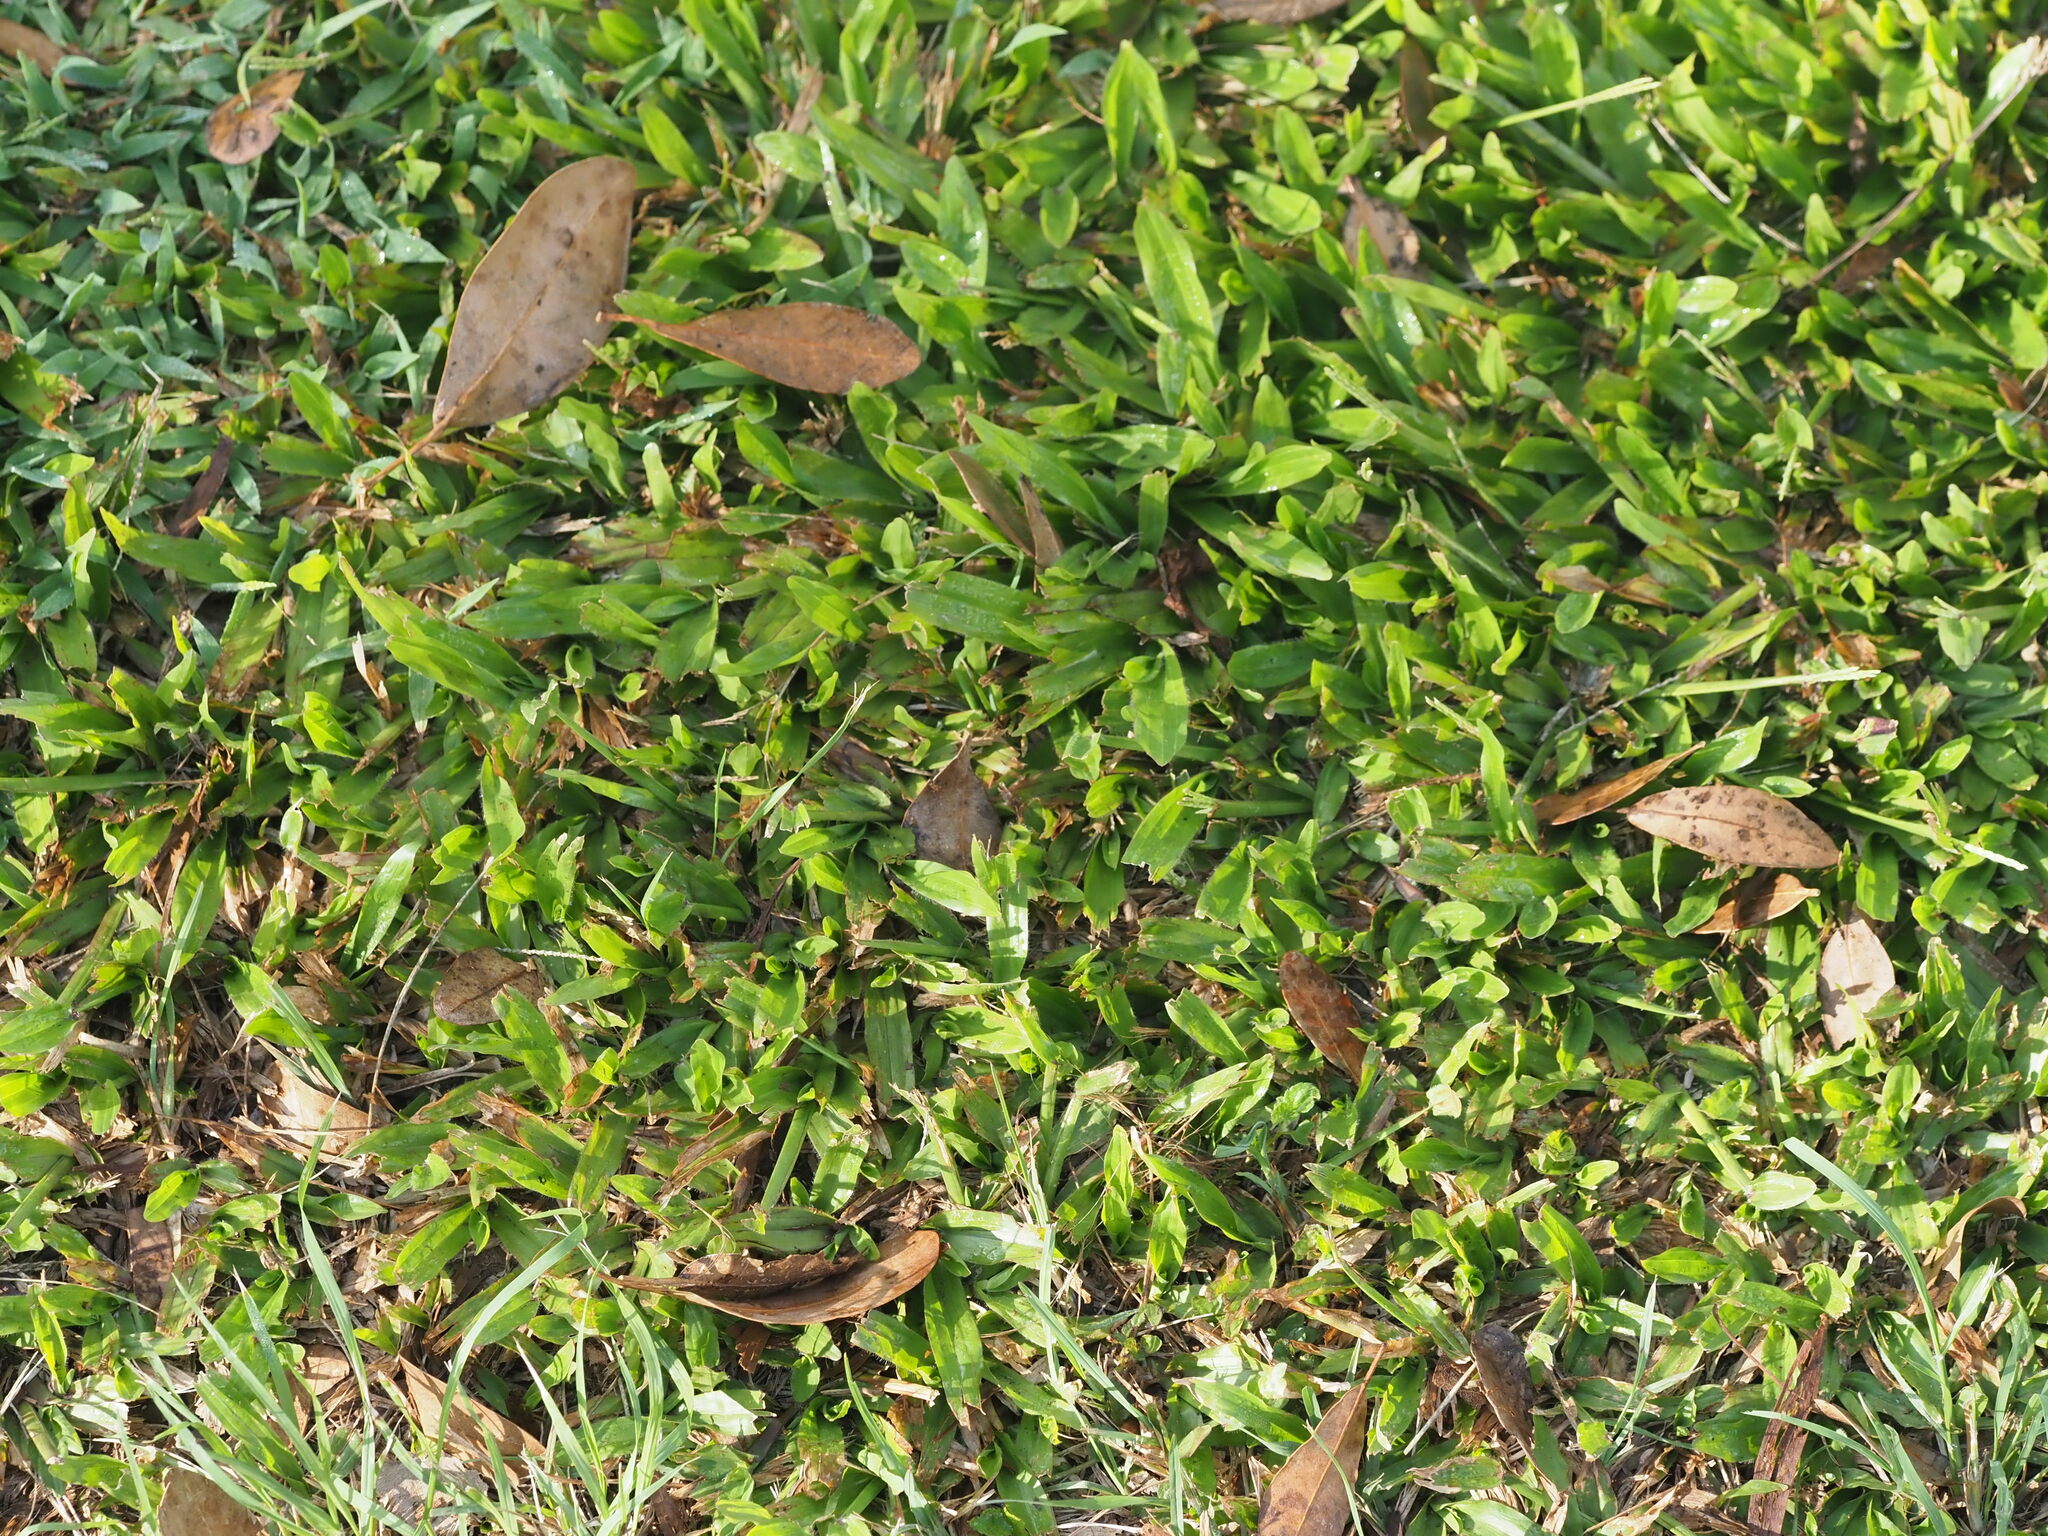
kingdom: Plantae
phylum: Tracheophyta
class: Liliopsida
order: Poales
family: Poaceae
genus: Axonopus
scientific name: Axonopus compressus
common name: American carpet grass
